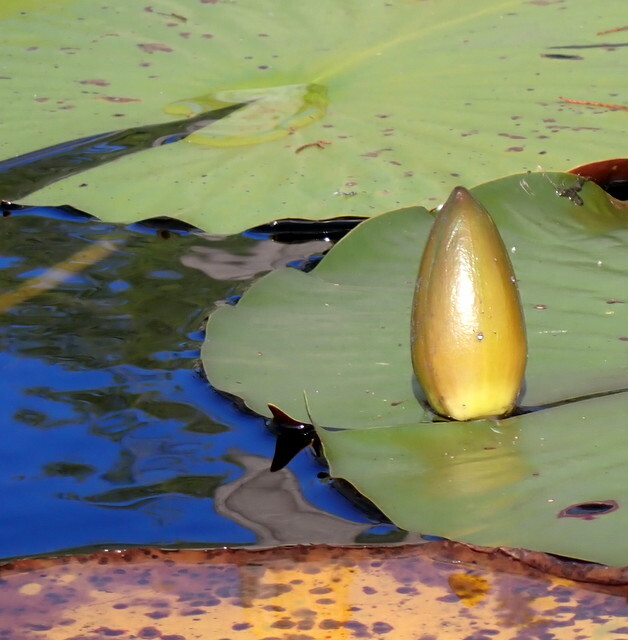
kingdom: Plantae
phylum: Tracheophyta
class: Magnoliopsida
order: Nymphaeales
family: Nymphaeaceae
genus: Nymphaea
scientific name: Nymphaea odorata
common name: Fragrant water-lily
